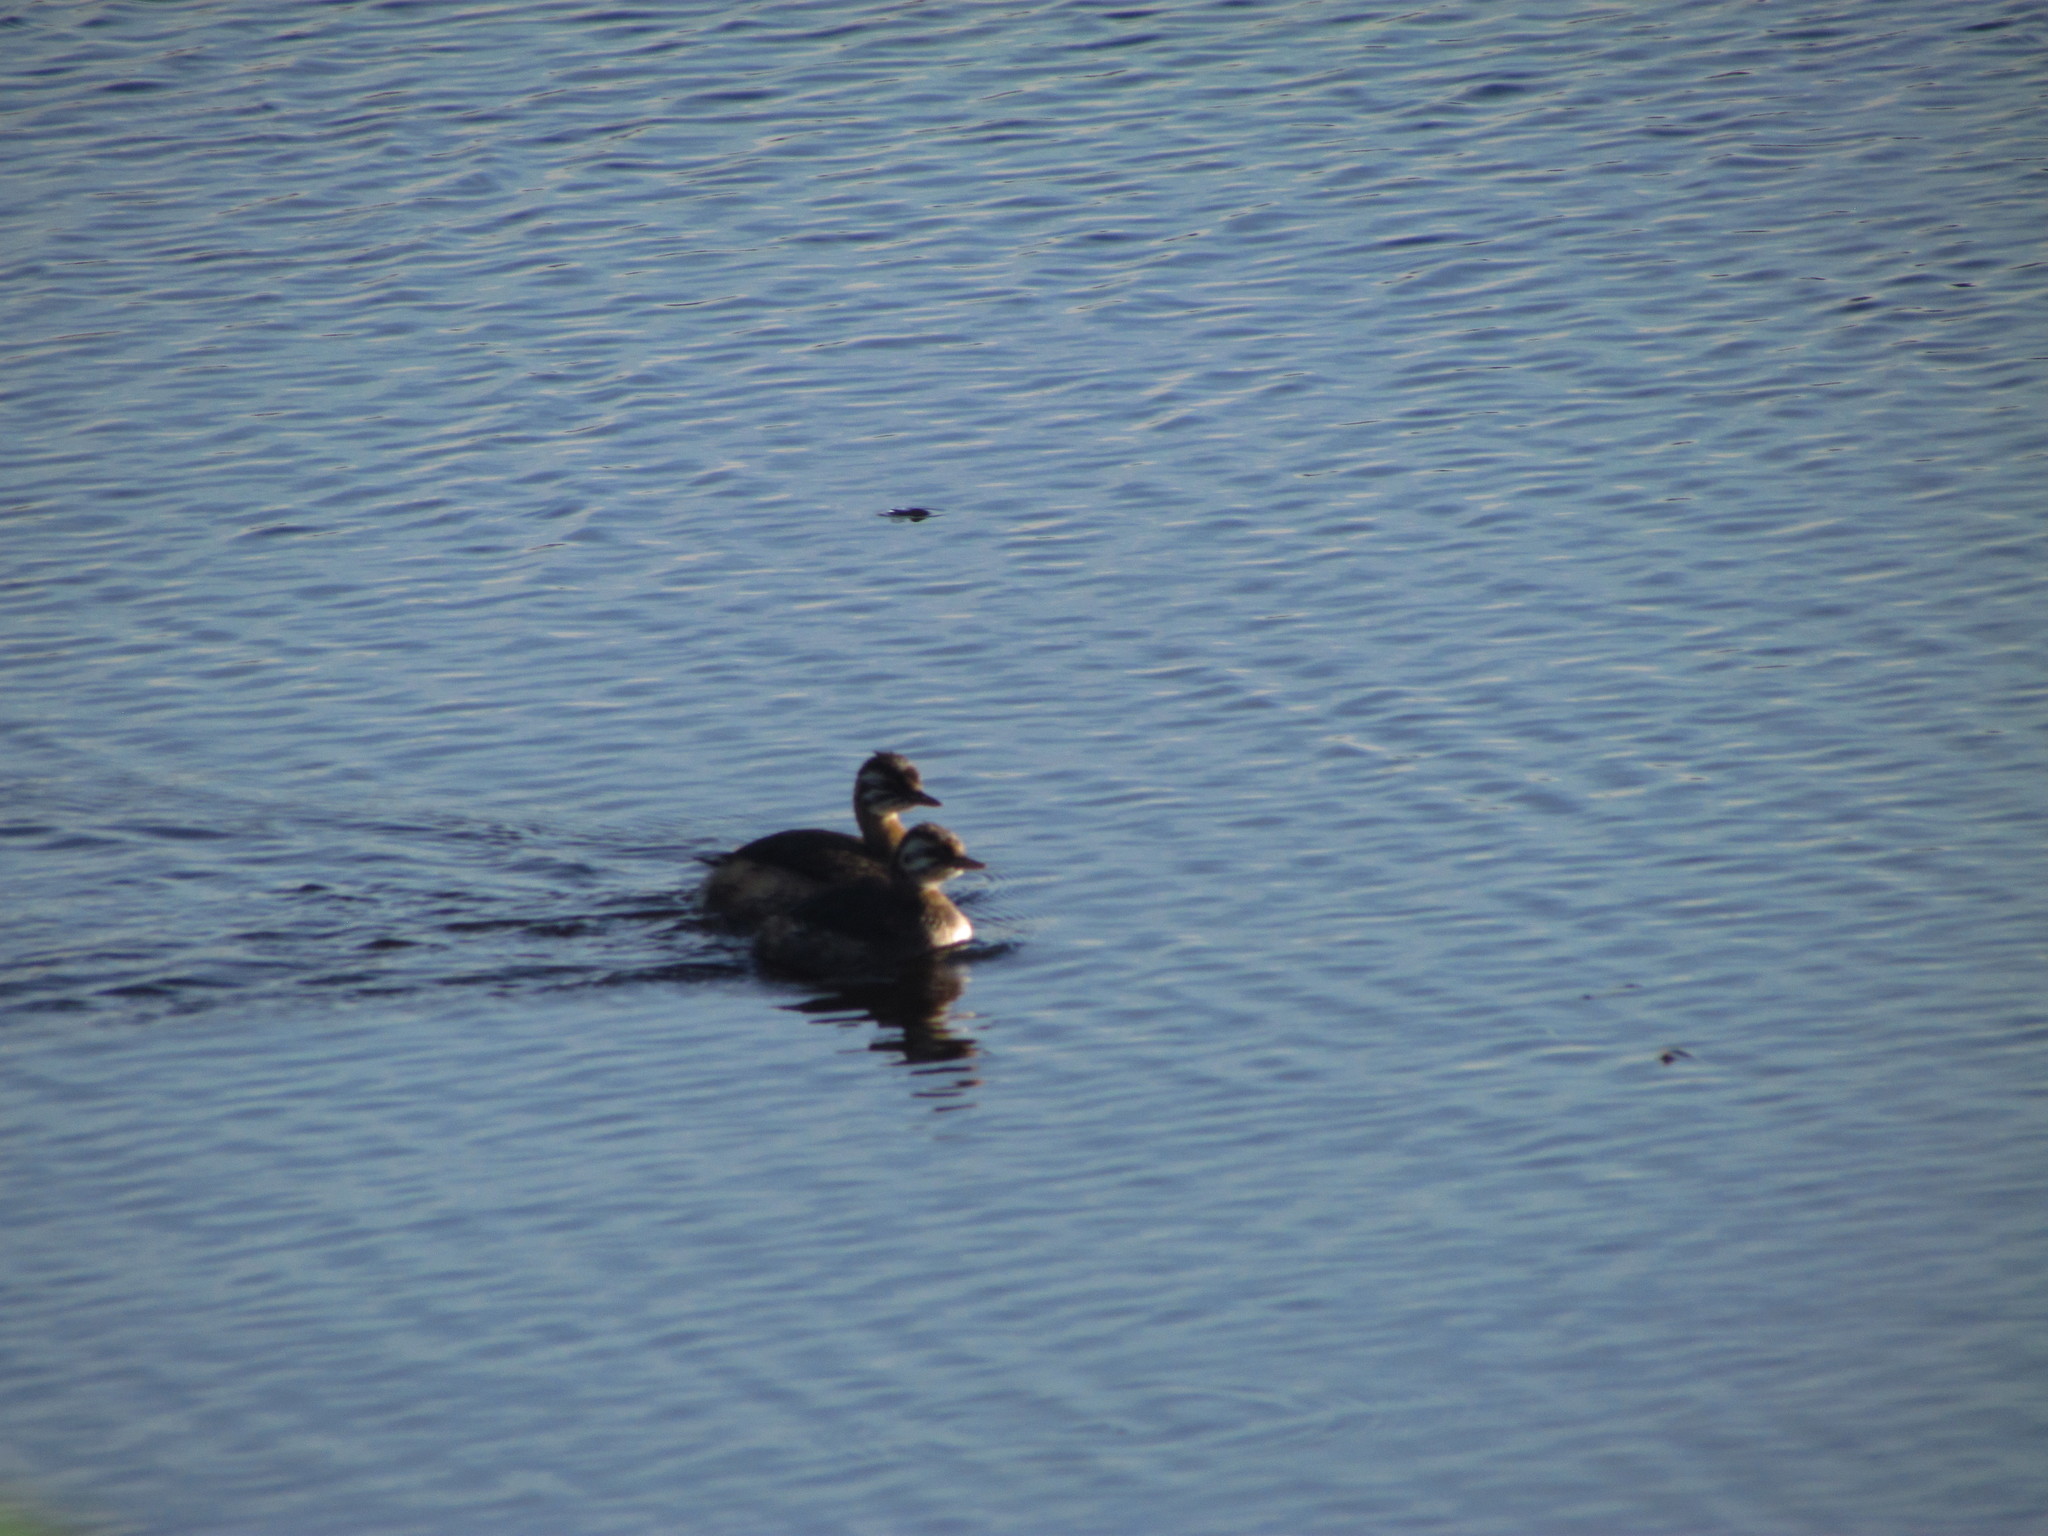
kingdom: Animalia
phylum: Chordata
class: Aves
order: Podicipediformes
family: Podicipedidae
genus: Rollandia
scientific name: Rollandia rolland
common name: White-tufted grebe
